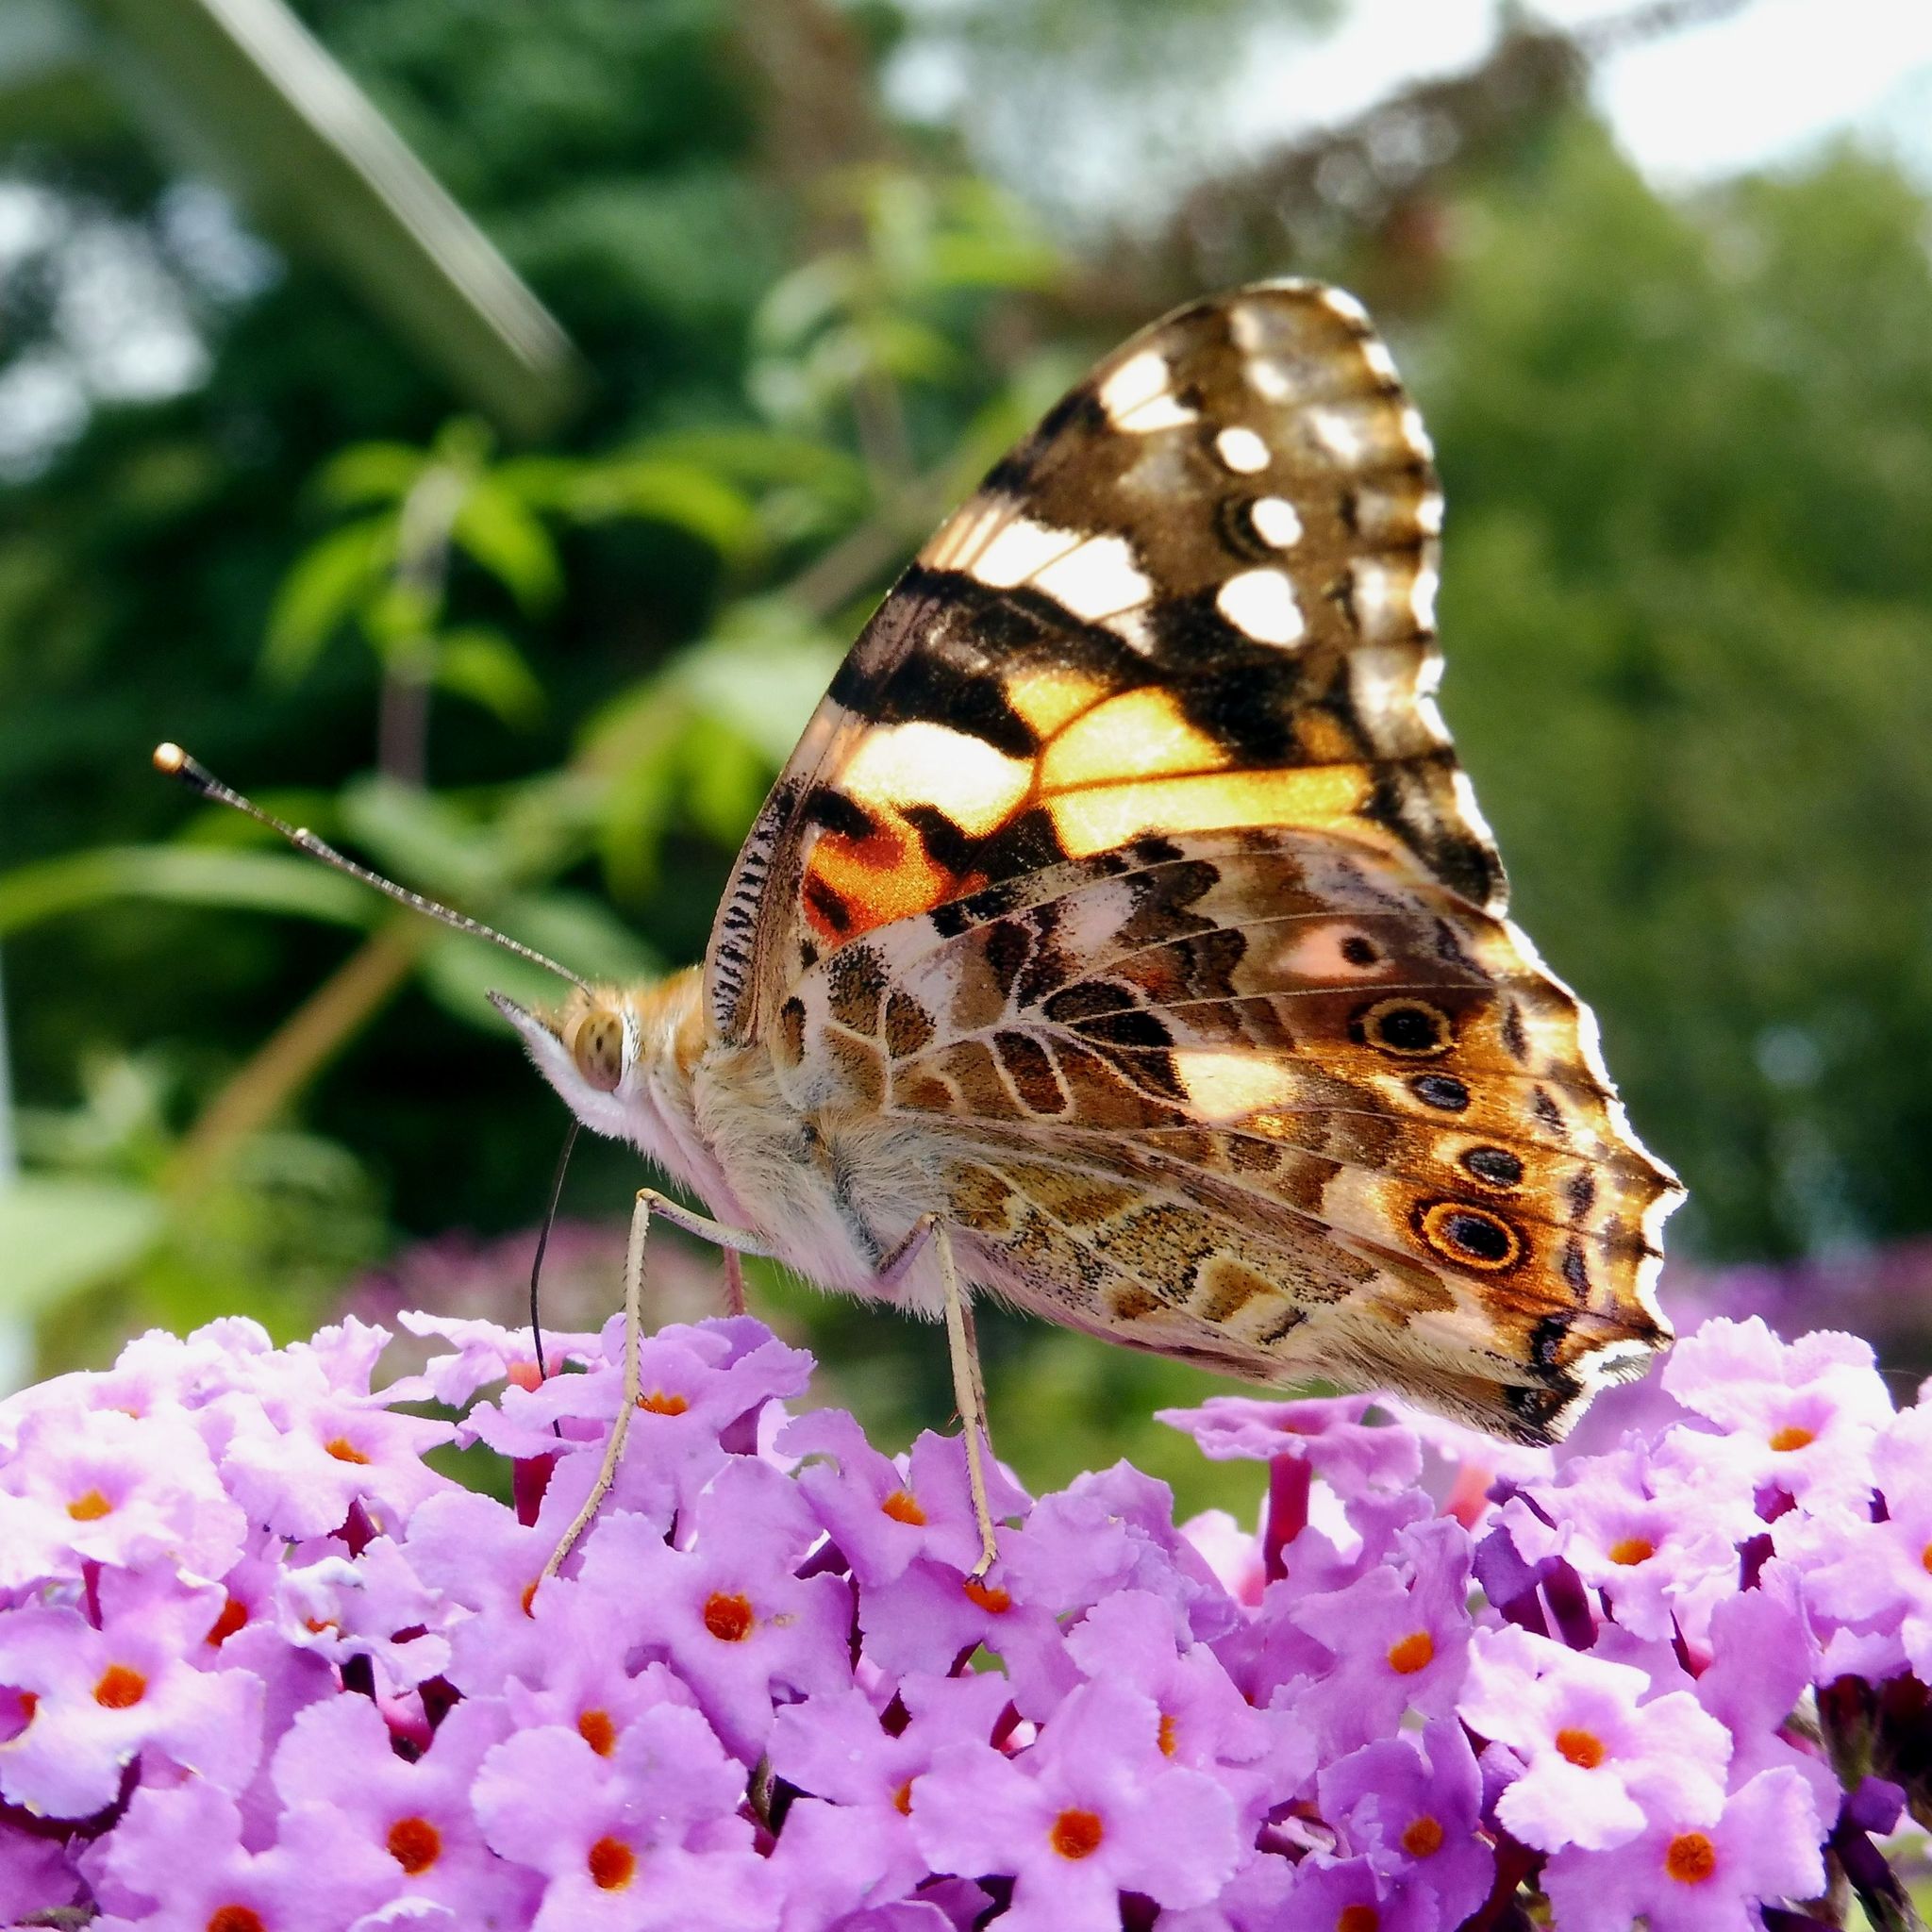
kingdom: Animalia
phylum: Arthropoda
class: Insecta
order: Lepidoptera
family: Nymphalidae
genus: Vanessa
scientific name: Vanessa cardui
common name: Painted lady
